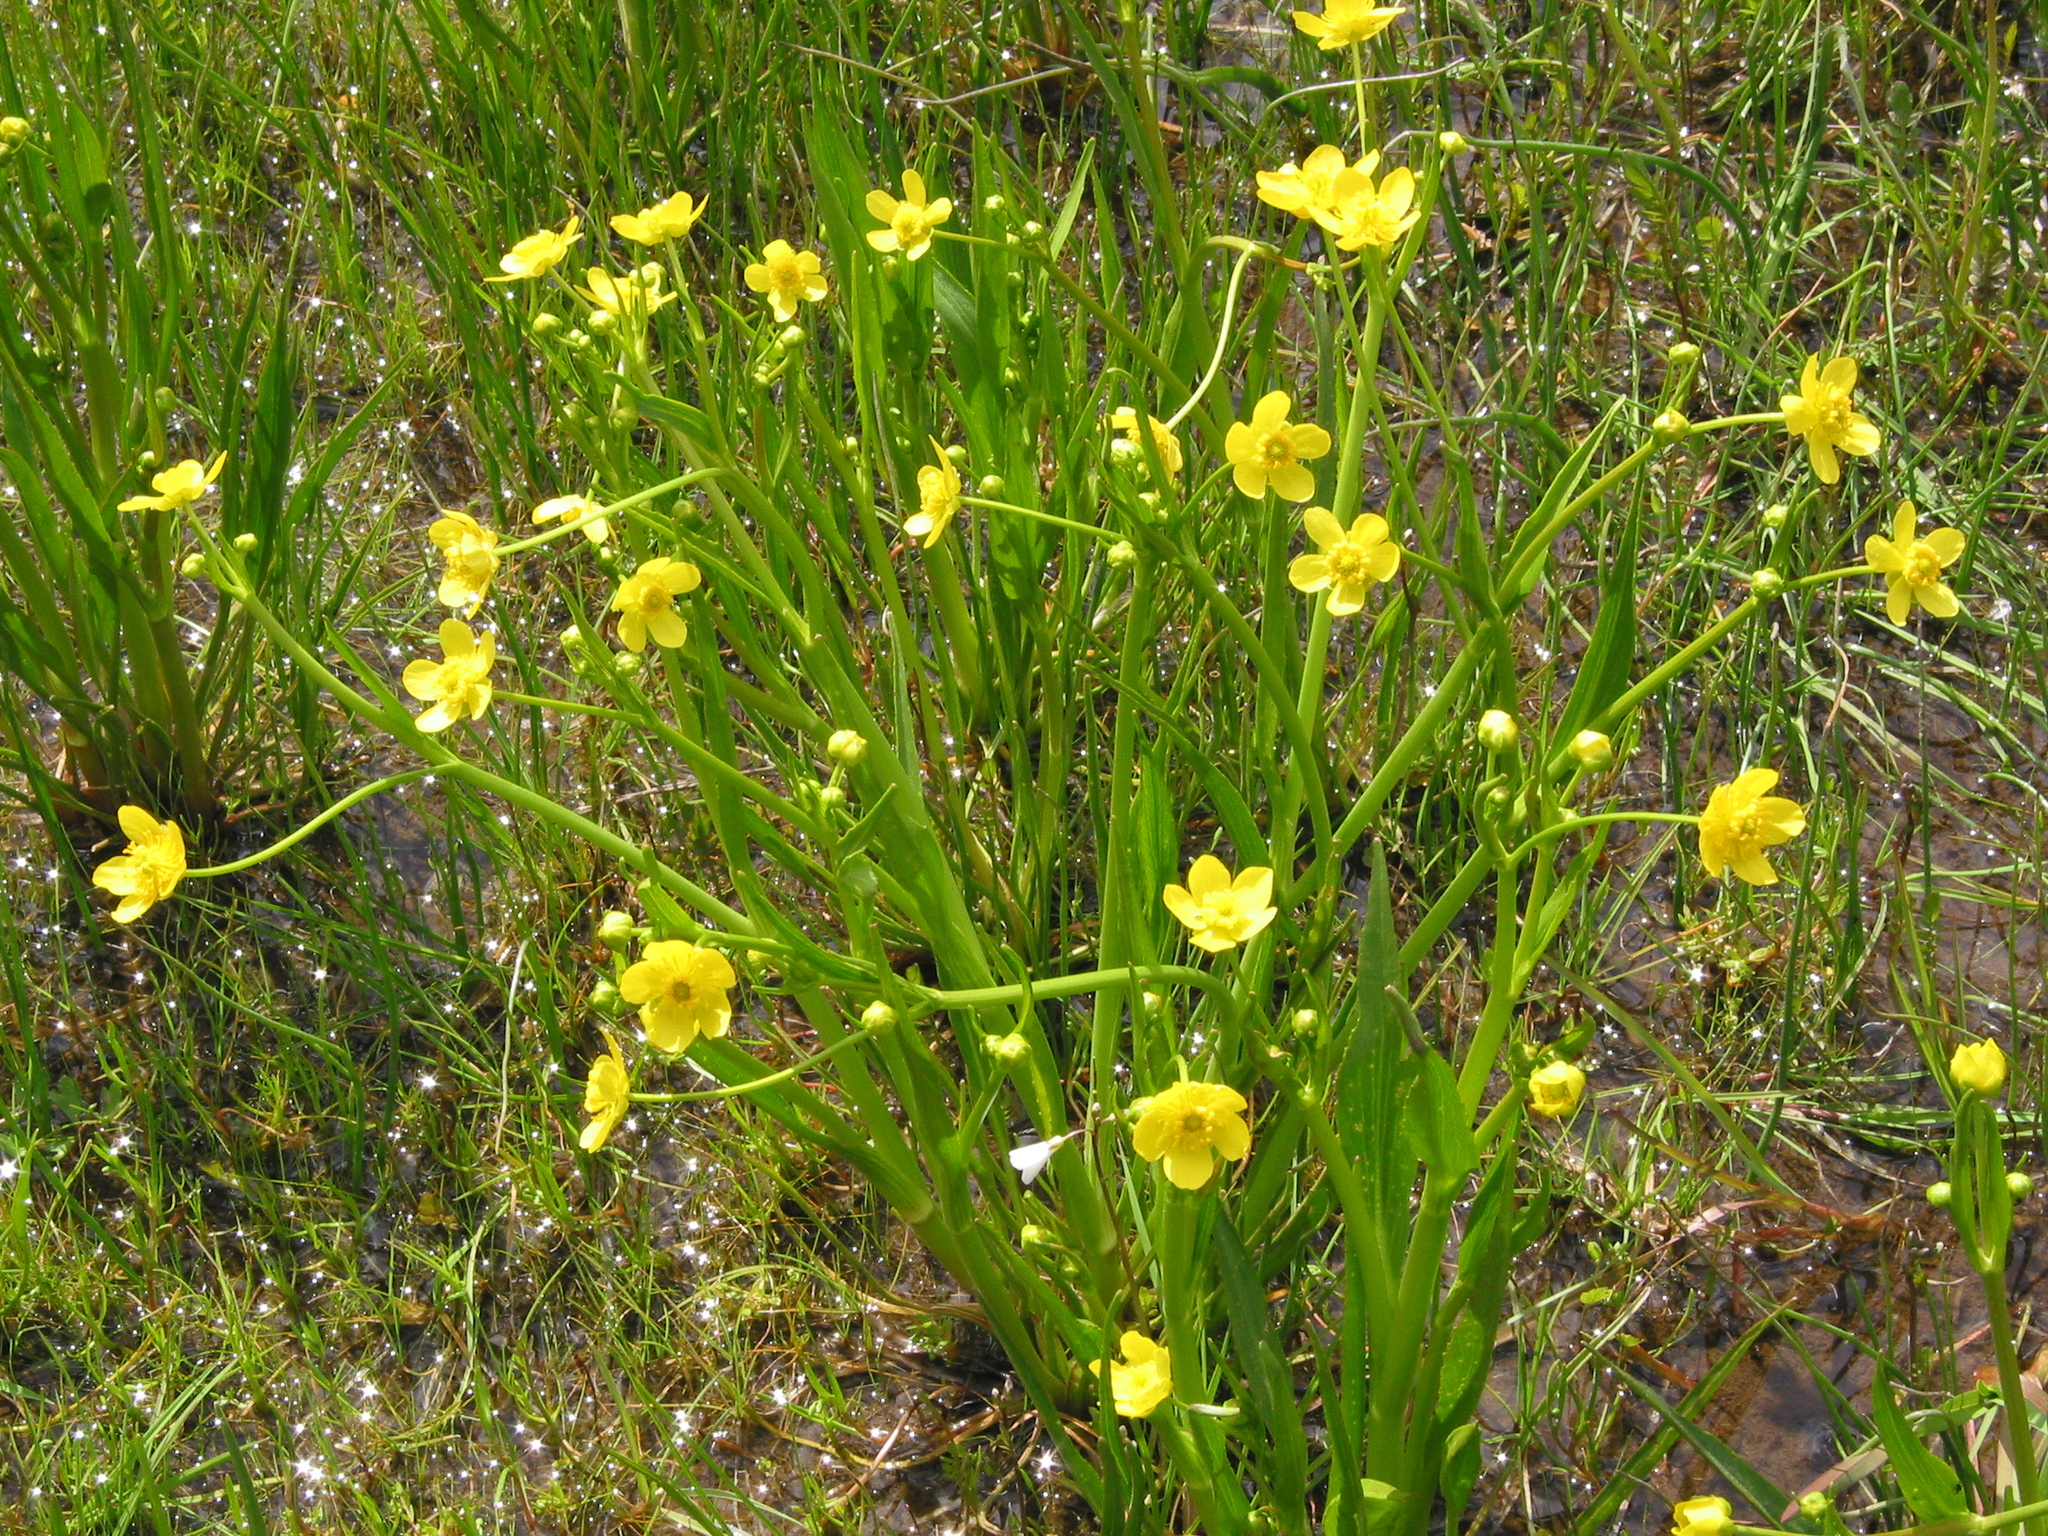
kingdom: Plantae
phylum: Tracheophyta
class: Magnoliopsida
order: Ranunculales
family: Ranunculaceae
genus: Ranunculus
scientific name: Ranunculus alismifolius
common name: Plantain-leaved buttercup
